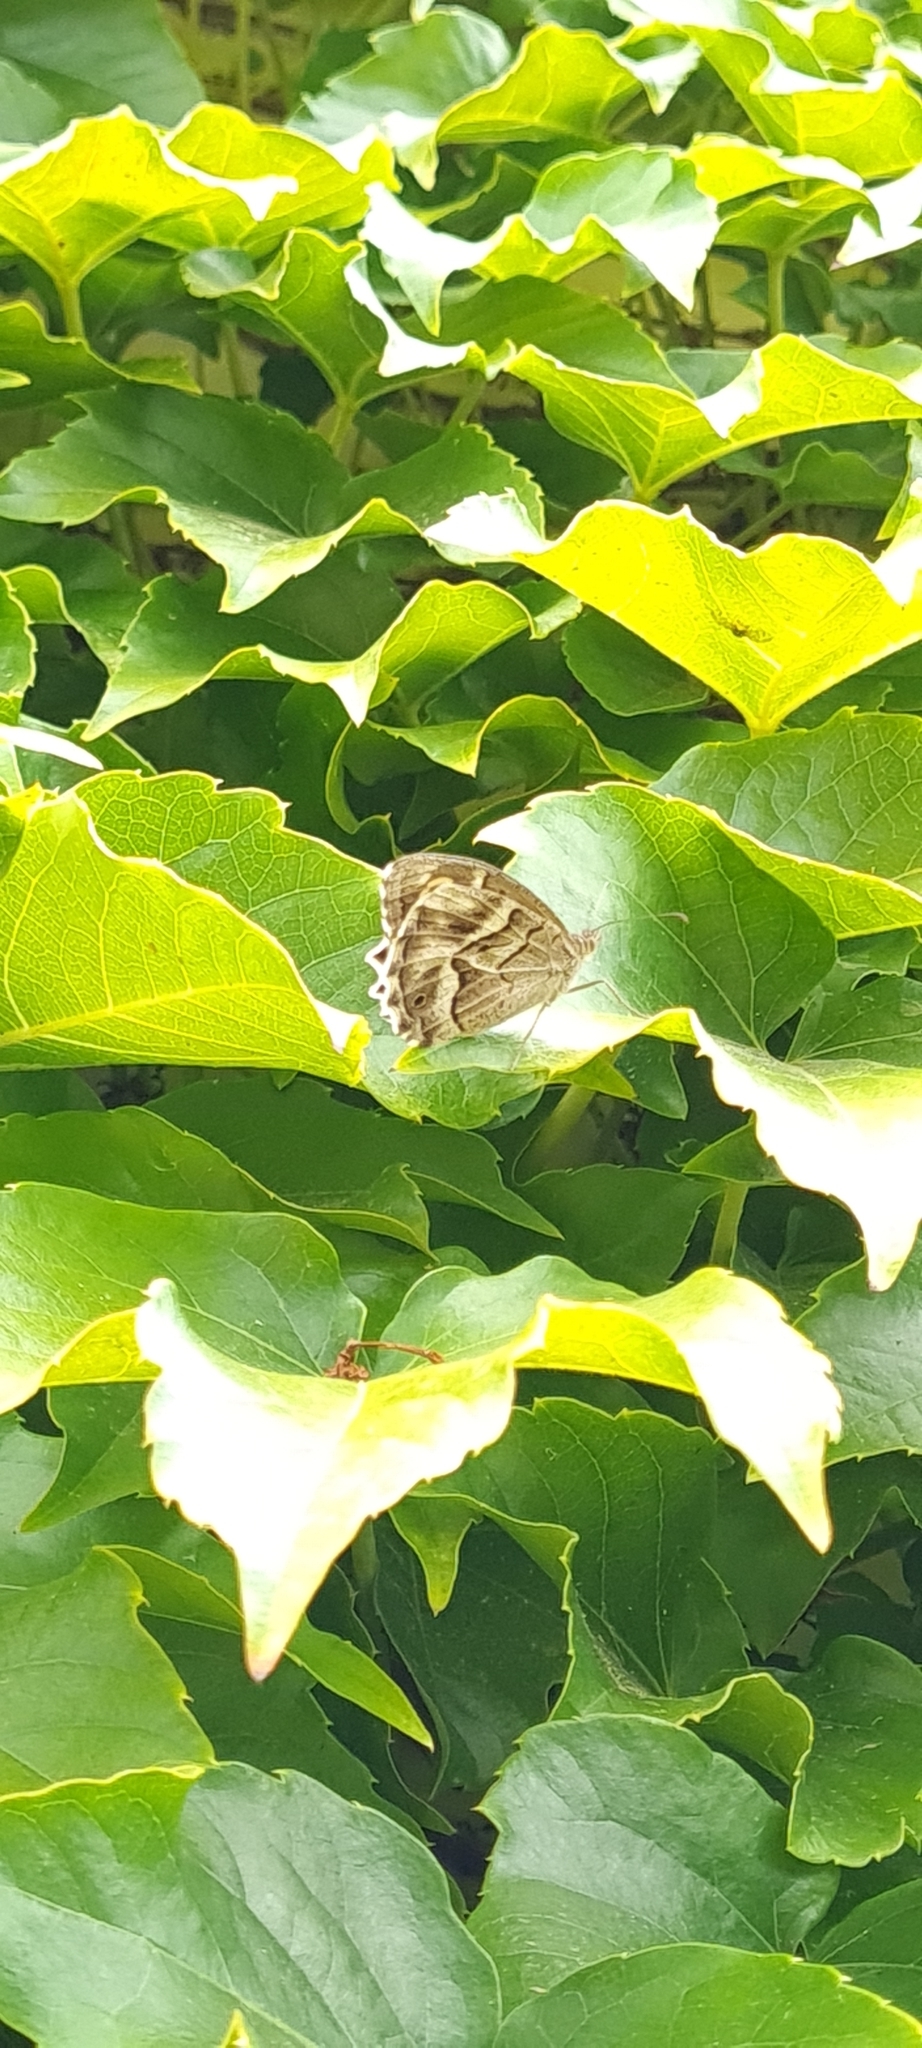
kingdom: Animalia
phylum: Arthropoda
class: Insecta
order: Lepidoptera
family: Nymphalidae
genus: Hipparchia
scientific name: Hipparchia fidia
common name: Striped grayling
